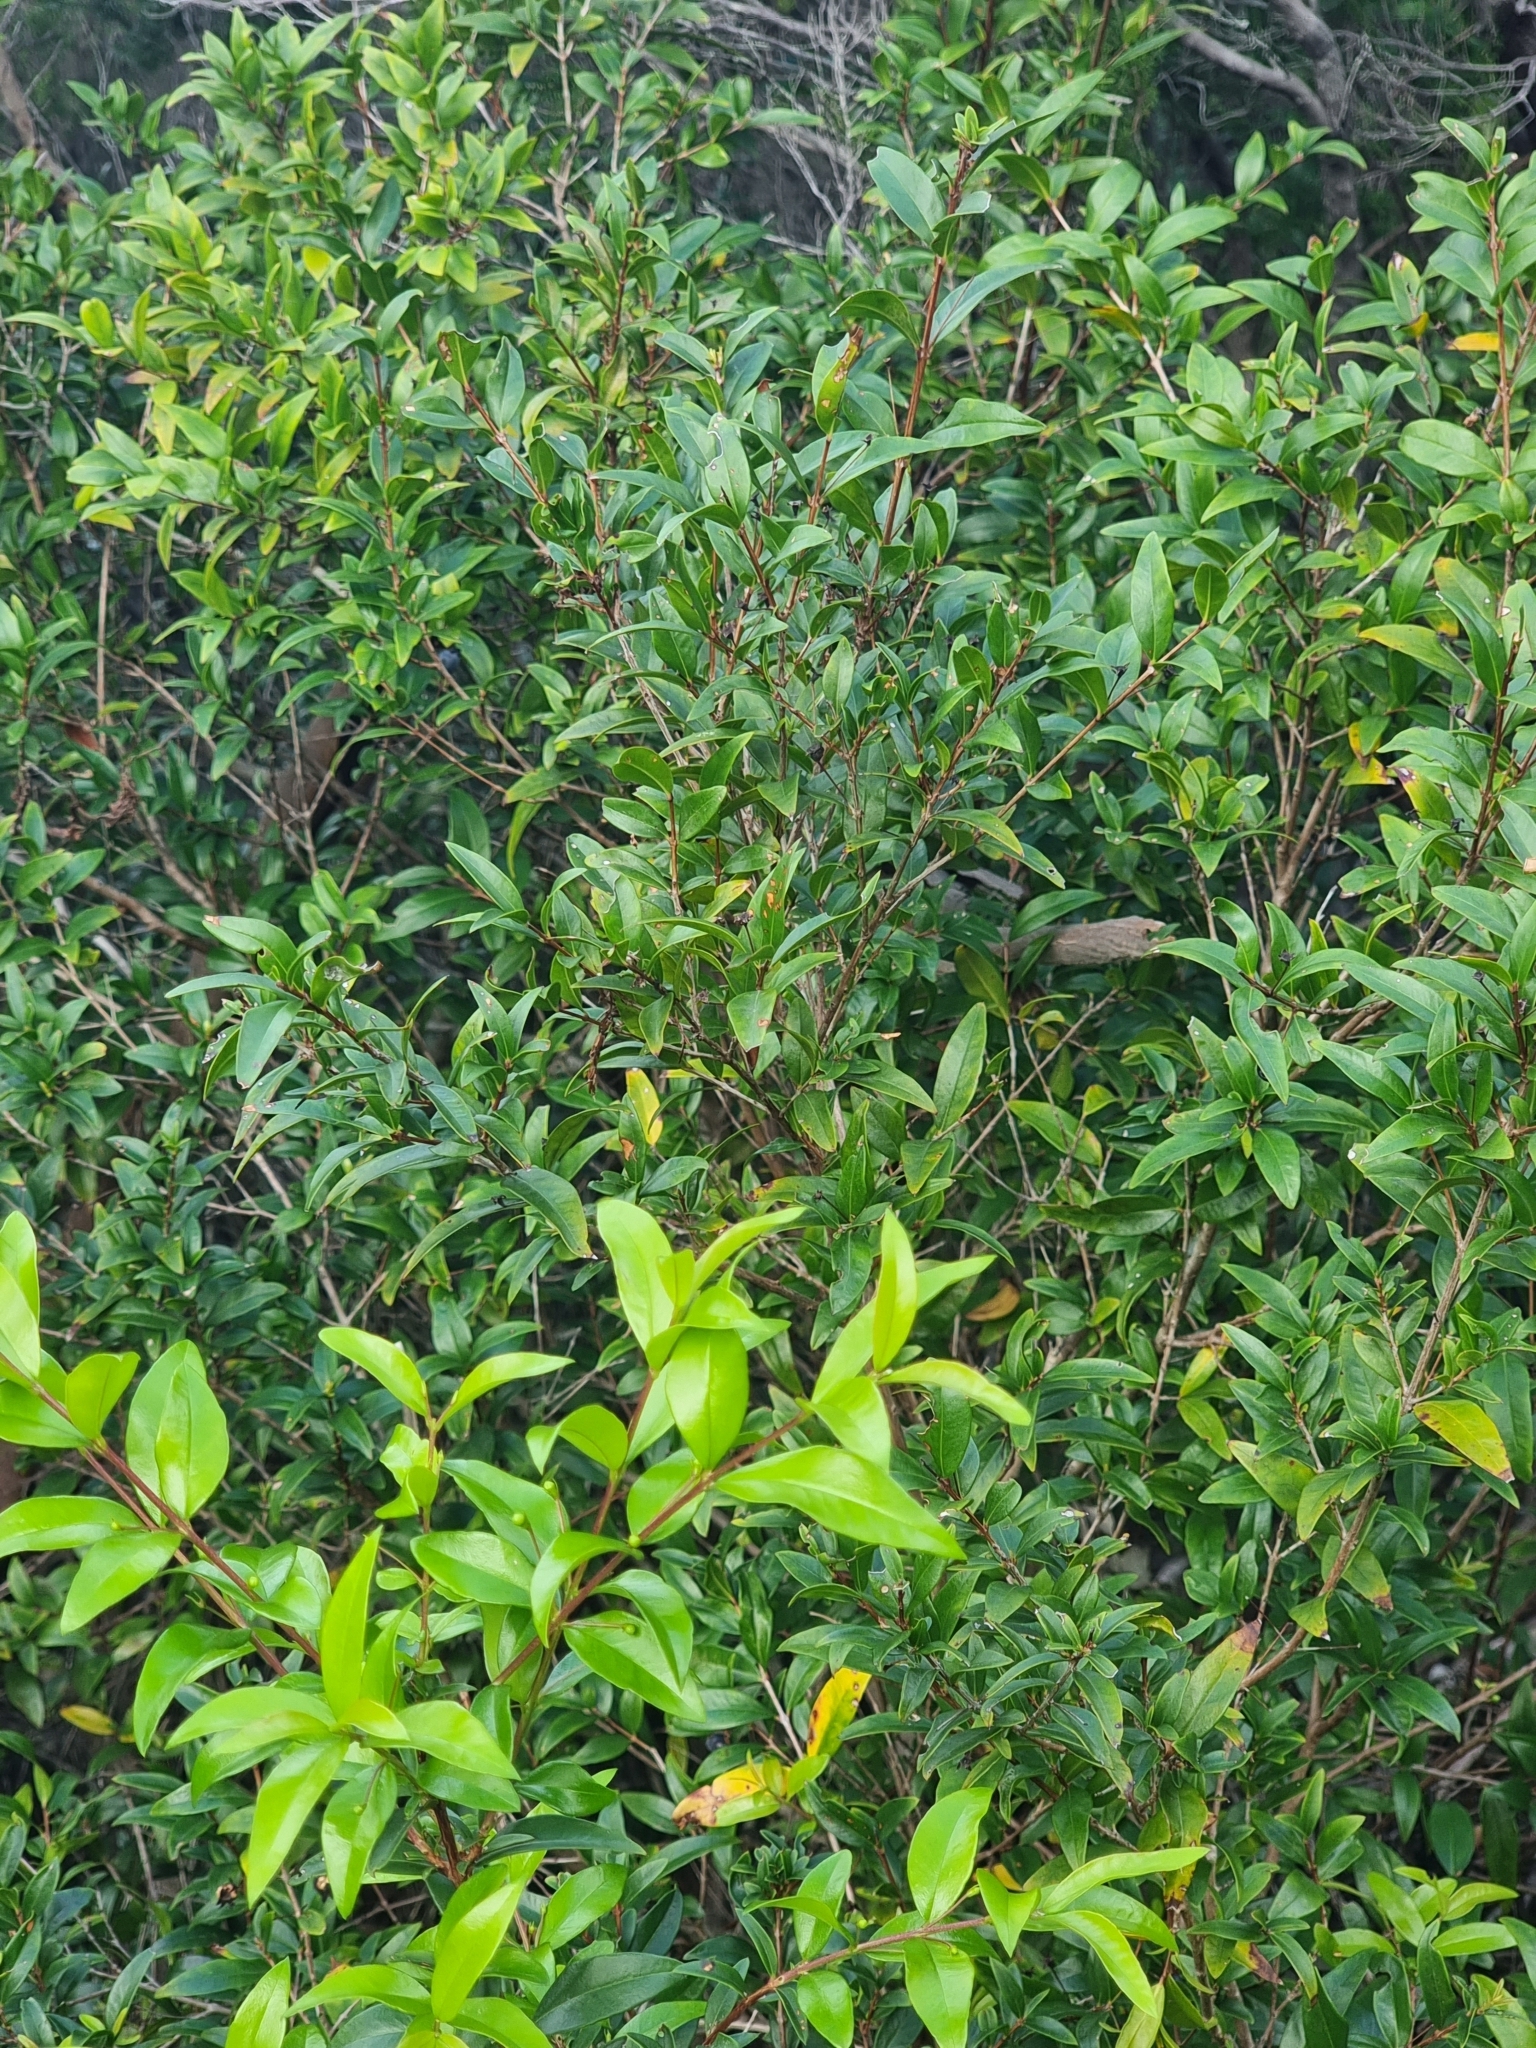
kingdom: Plantae
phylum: Tracheophyta
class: Magnoliopsida
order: Myrtales
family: Myrtaceae
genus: Myrtus
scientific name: Myrtus communis
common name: Myrtle
